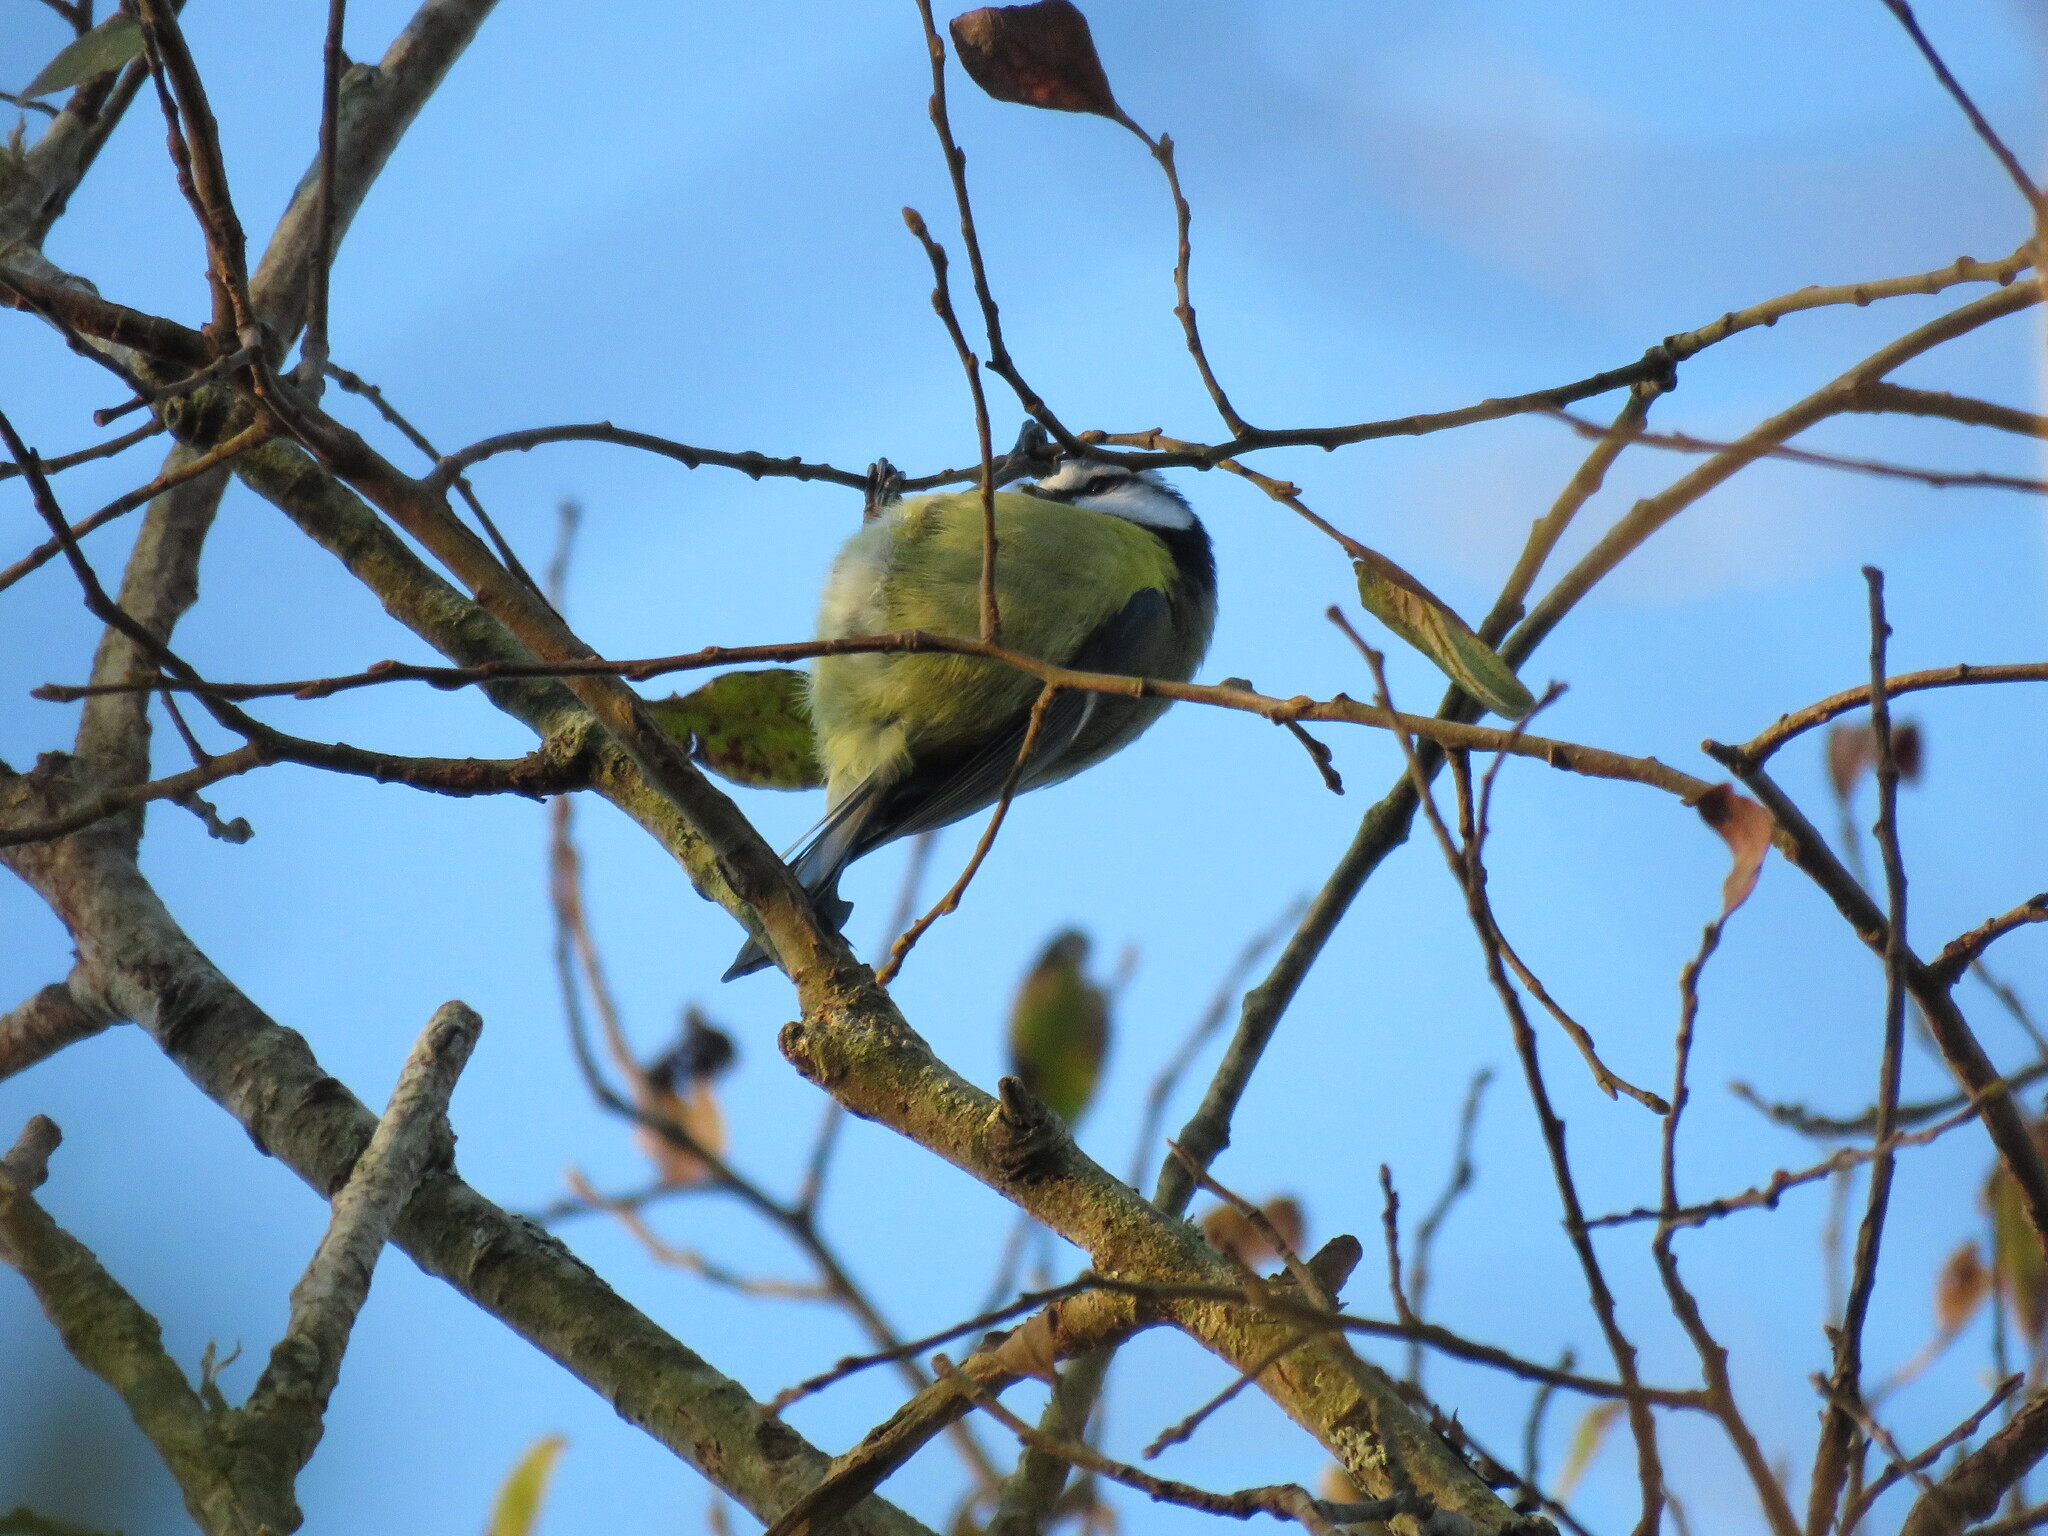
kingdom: Animalia
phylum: Chordata
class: Aves
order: Passeriformes
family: Paridae
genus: Cyanistes
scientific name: Cyanistes caeruleus
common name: Eurasian blue tit
